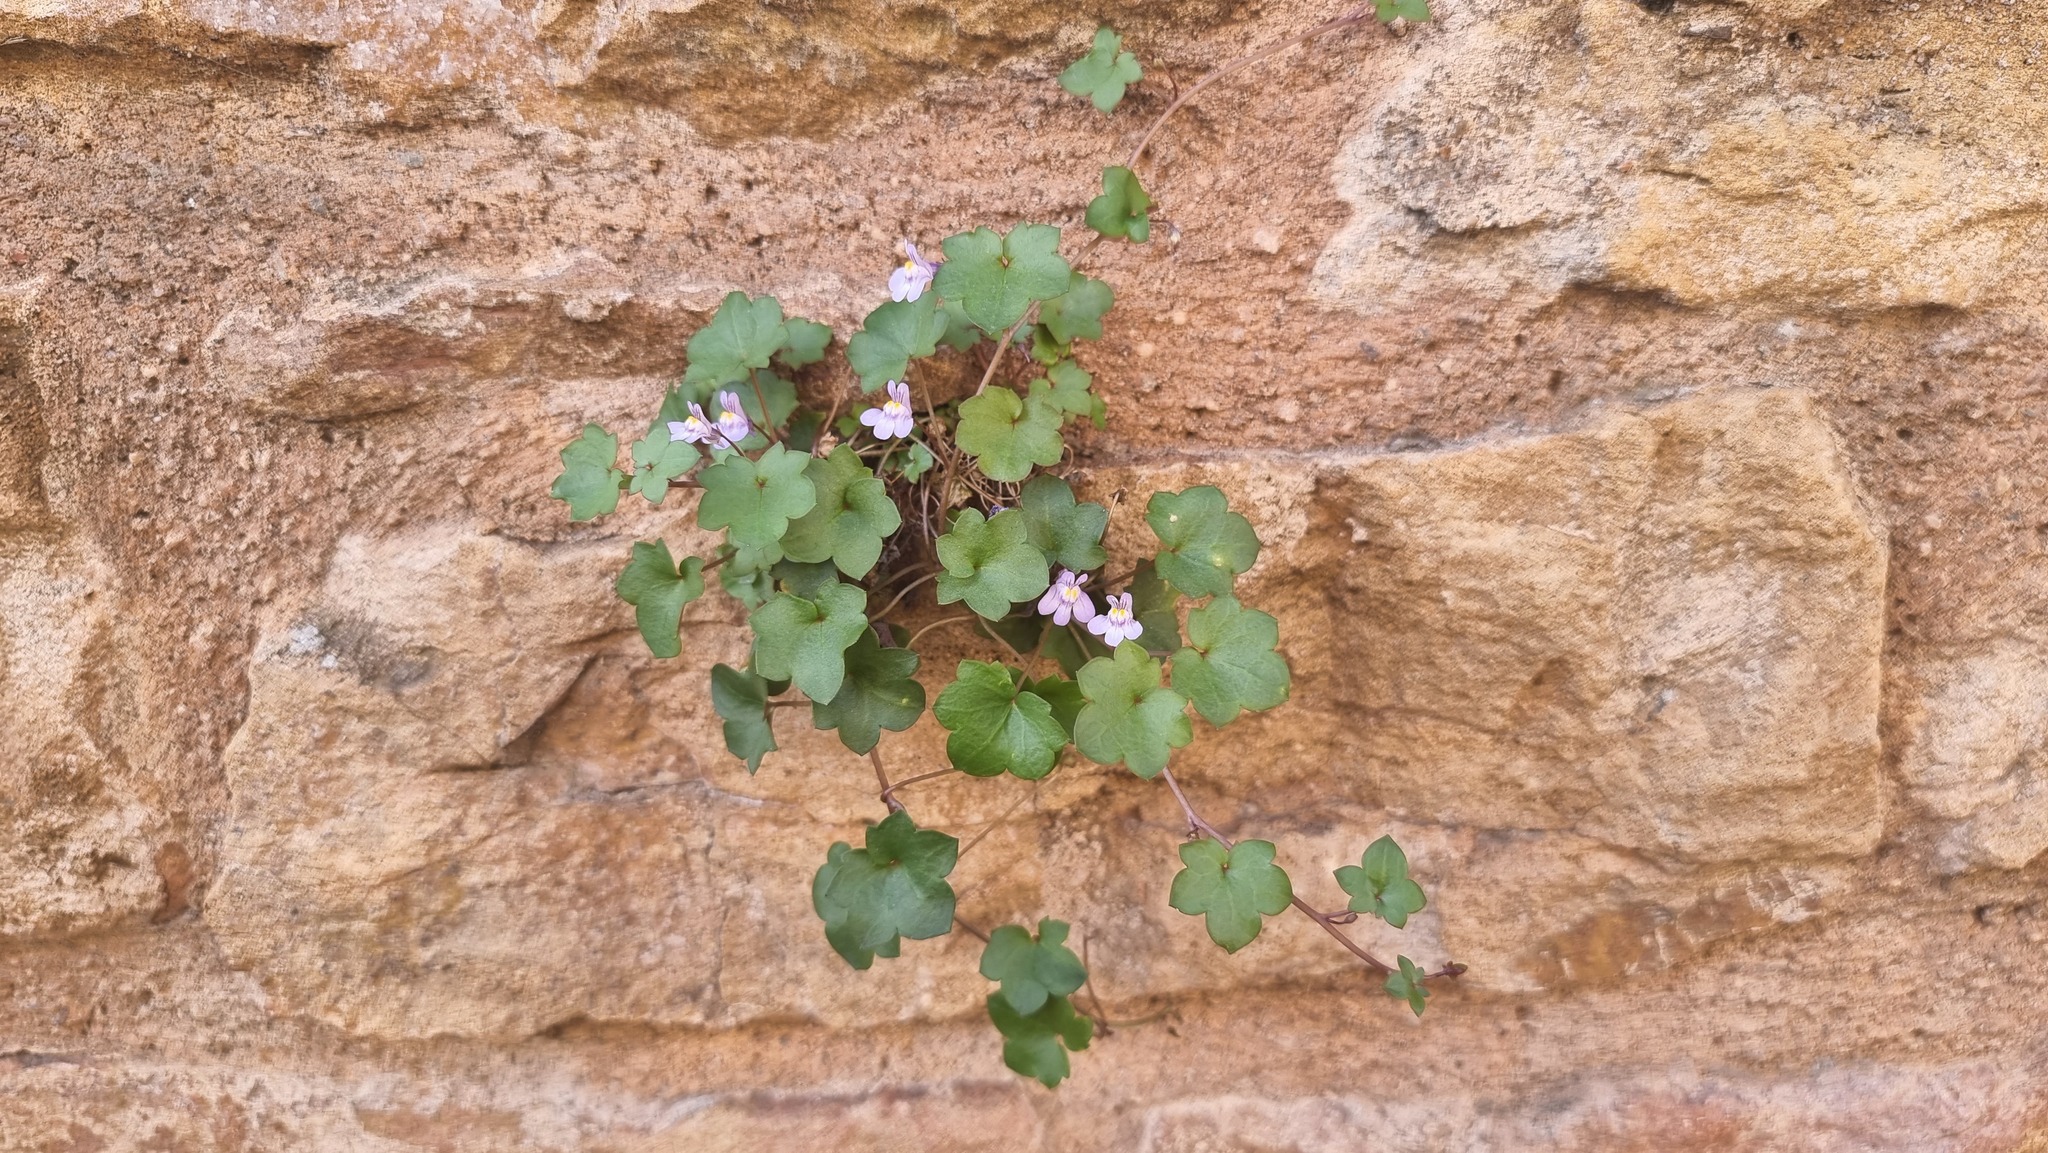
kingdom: Plantae
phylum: Tracheophyta
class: Magnoliopsida
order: Lamiales
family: Plantaginaceae
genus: Cymbalaria
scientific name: Cymbalaria muralis
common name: Ivy-leaved toadflax
